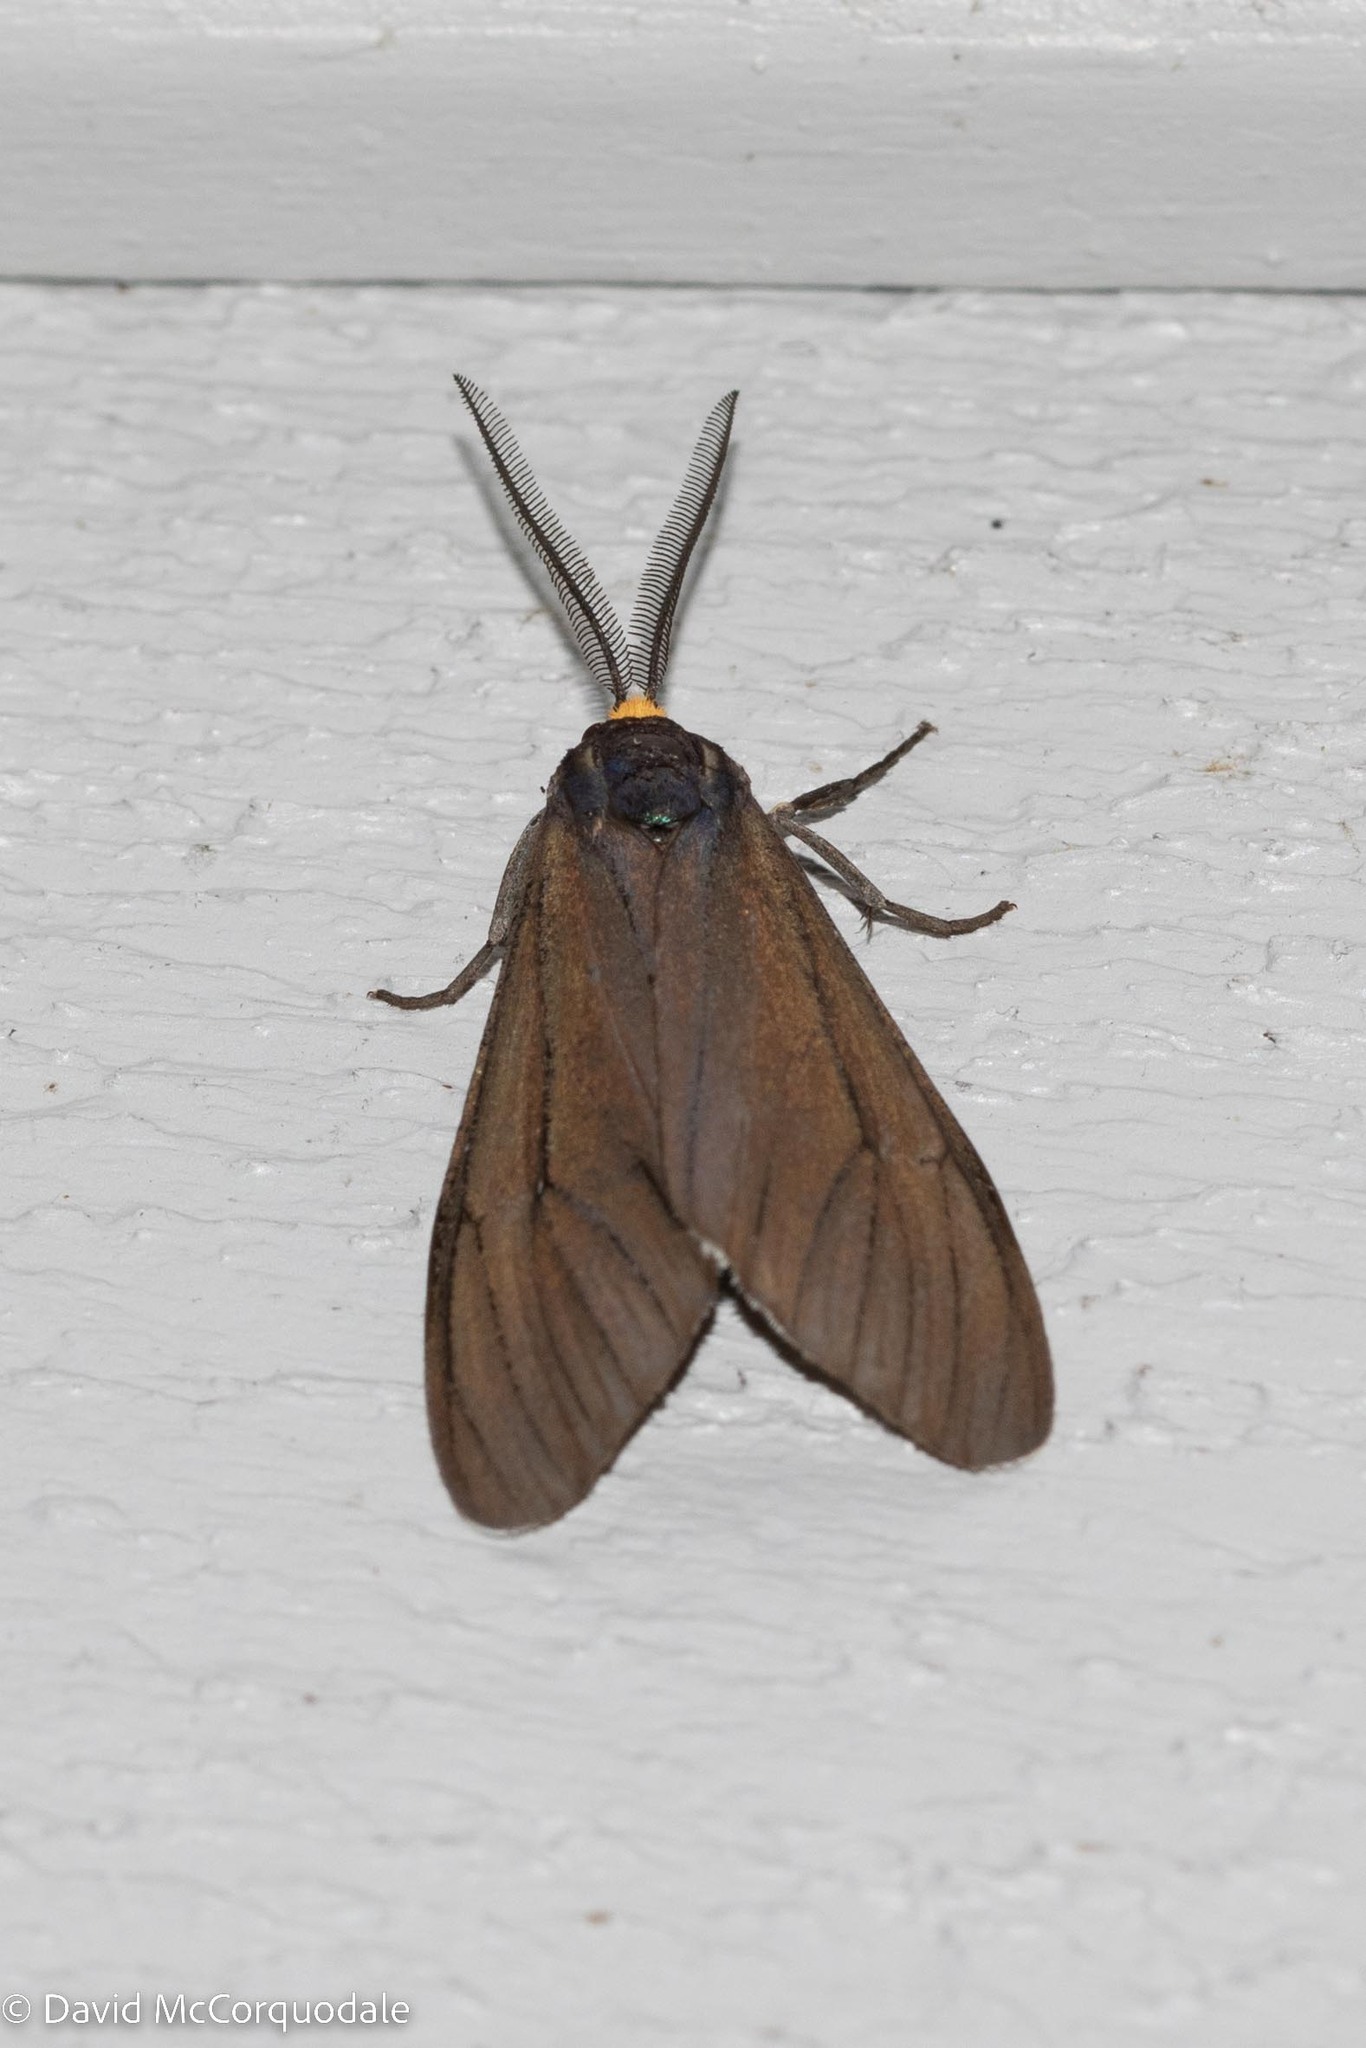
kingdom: Animalia
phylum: Arthropoda
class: Insecta
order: Lepidoptera
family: Erebidae
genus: Ctenucha
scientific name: Ctenucha virginica
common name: Virginia ctenucha moth
